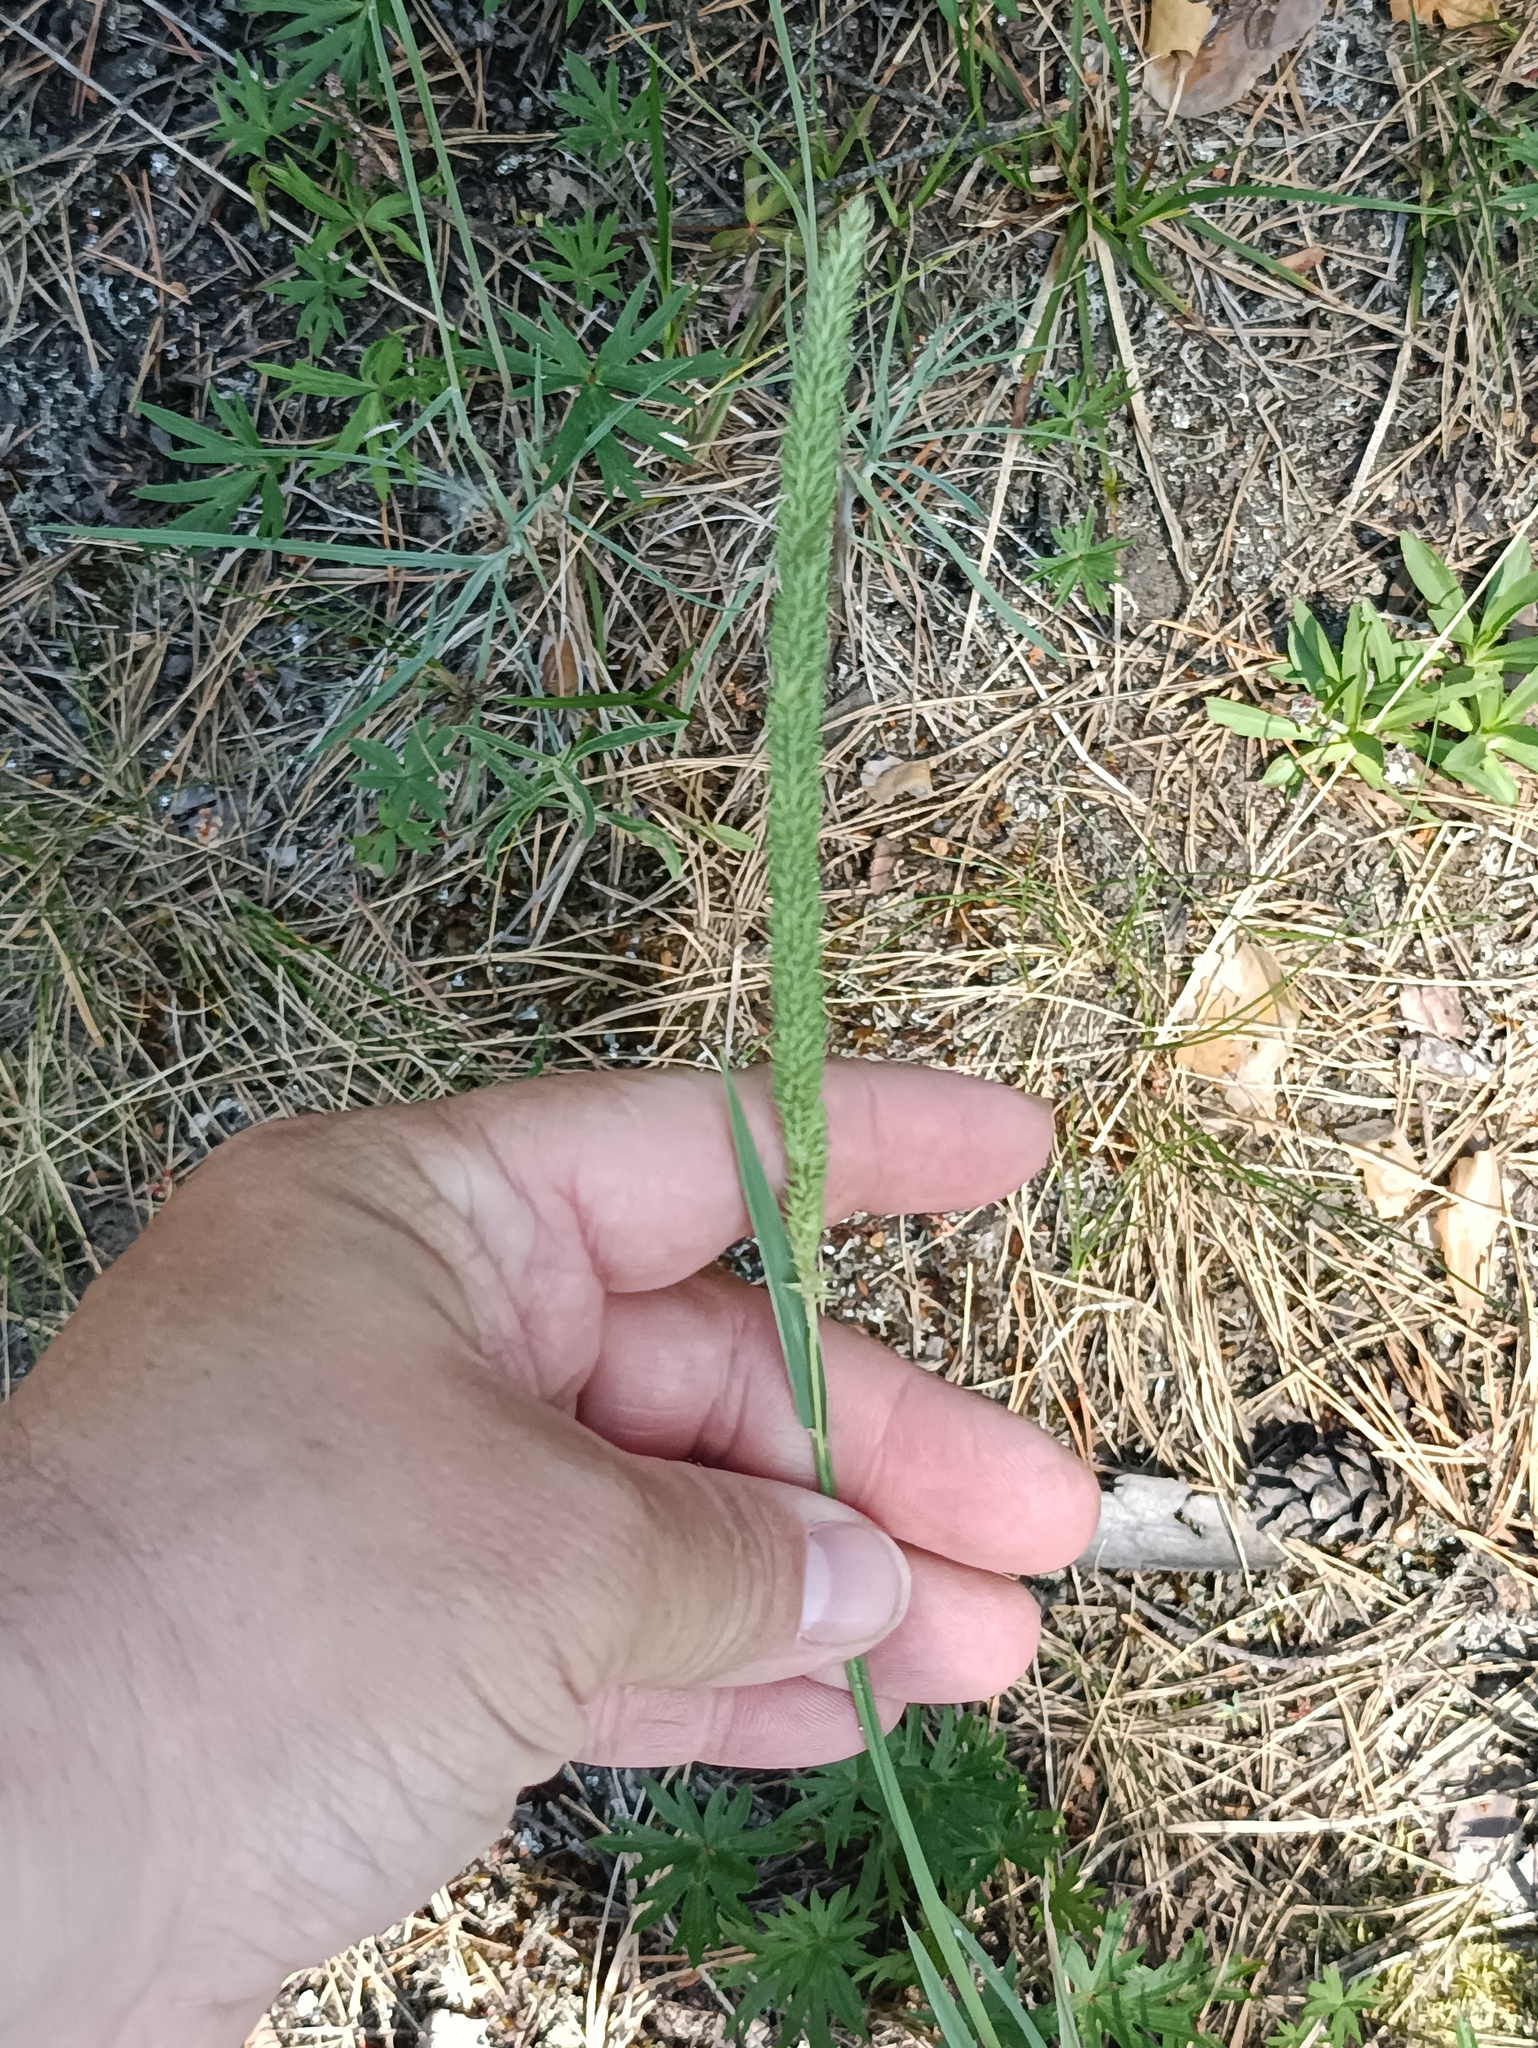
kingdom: Plantae
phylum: Tracheophyta
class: Liliopsida
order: Poales
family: Poaceae
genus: Phleum
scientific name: Phleum phleoides
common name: Purple-stem cat's-tail
